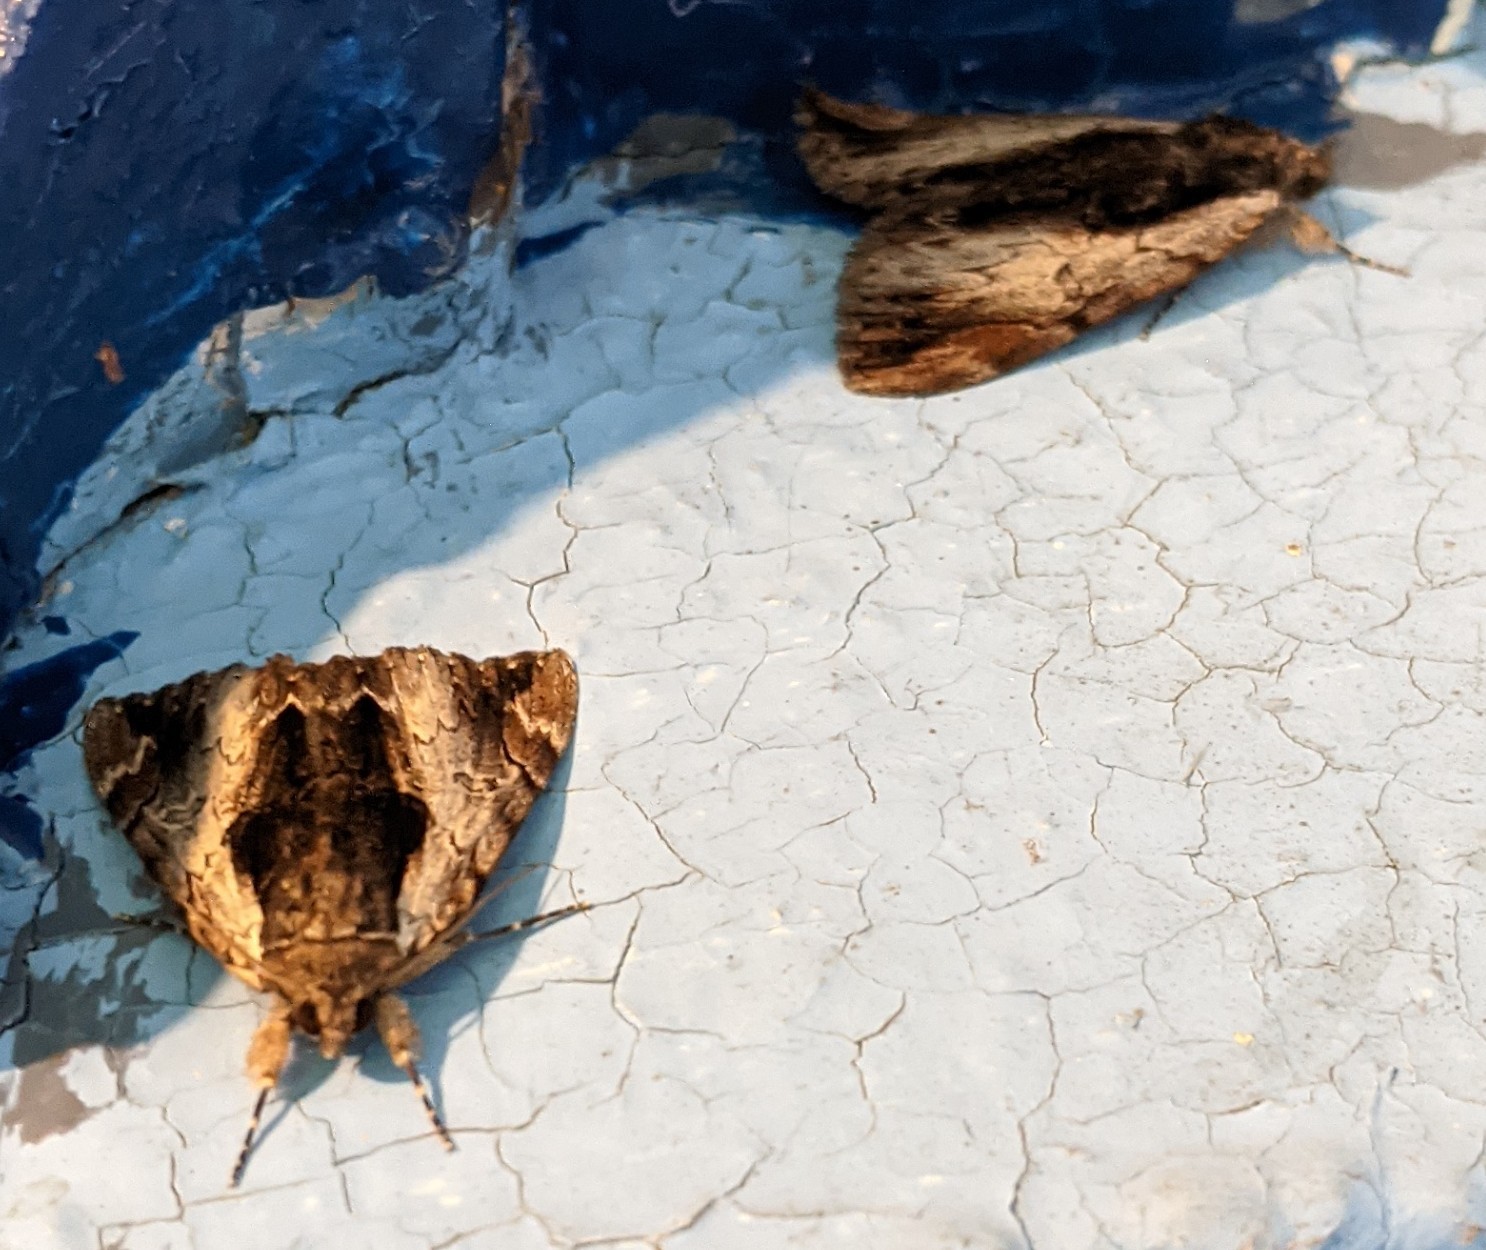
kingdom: Animalia
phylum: Arthropoda
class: Insecta
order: Lepidoptera
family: Erebidae
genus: Catocala
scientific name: Catocala ultronia
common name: Ultronia underwing
